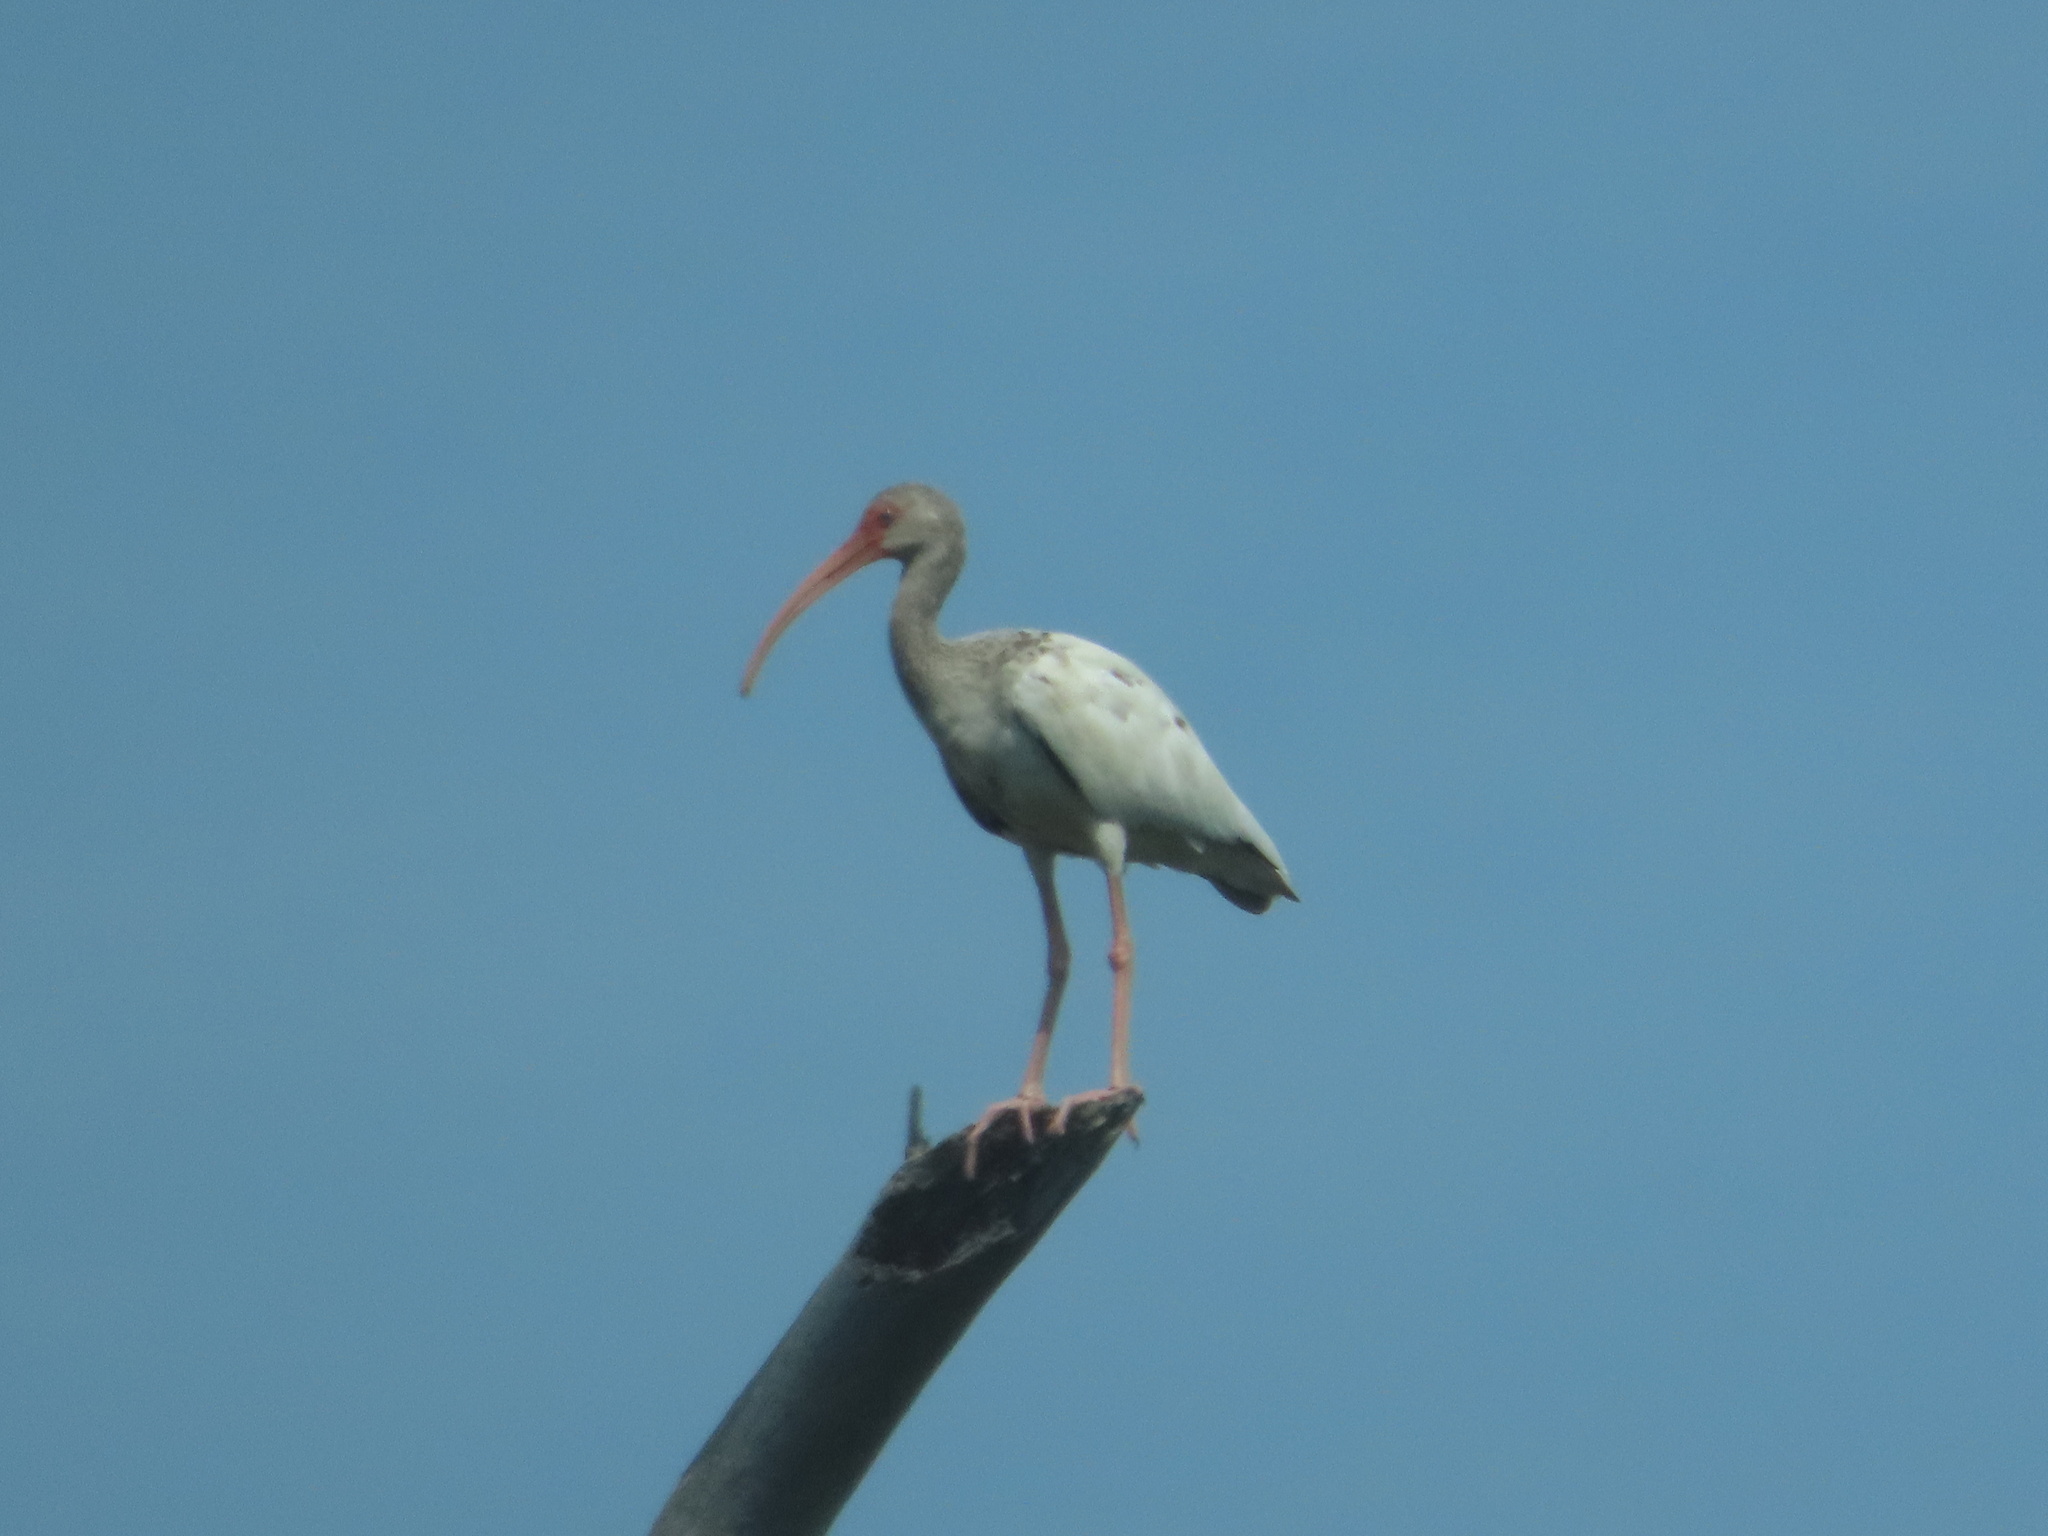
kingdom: Animalia
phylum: Chordata
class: Aves
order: Pelecaniformes
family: Threskiornithidae
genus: Eudocimus
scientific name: Eudocimus albus
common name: White ibis
